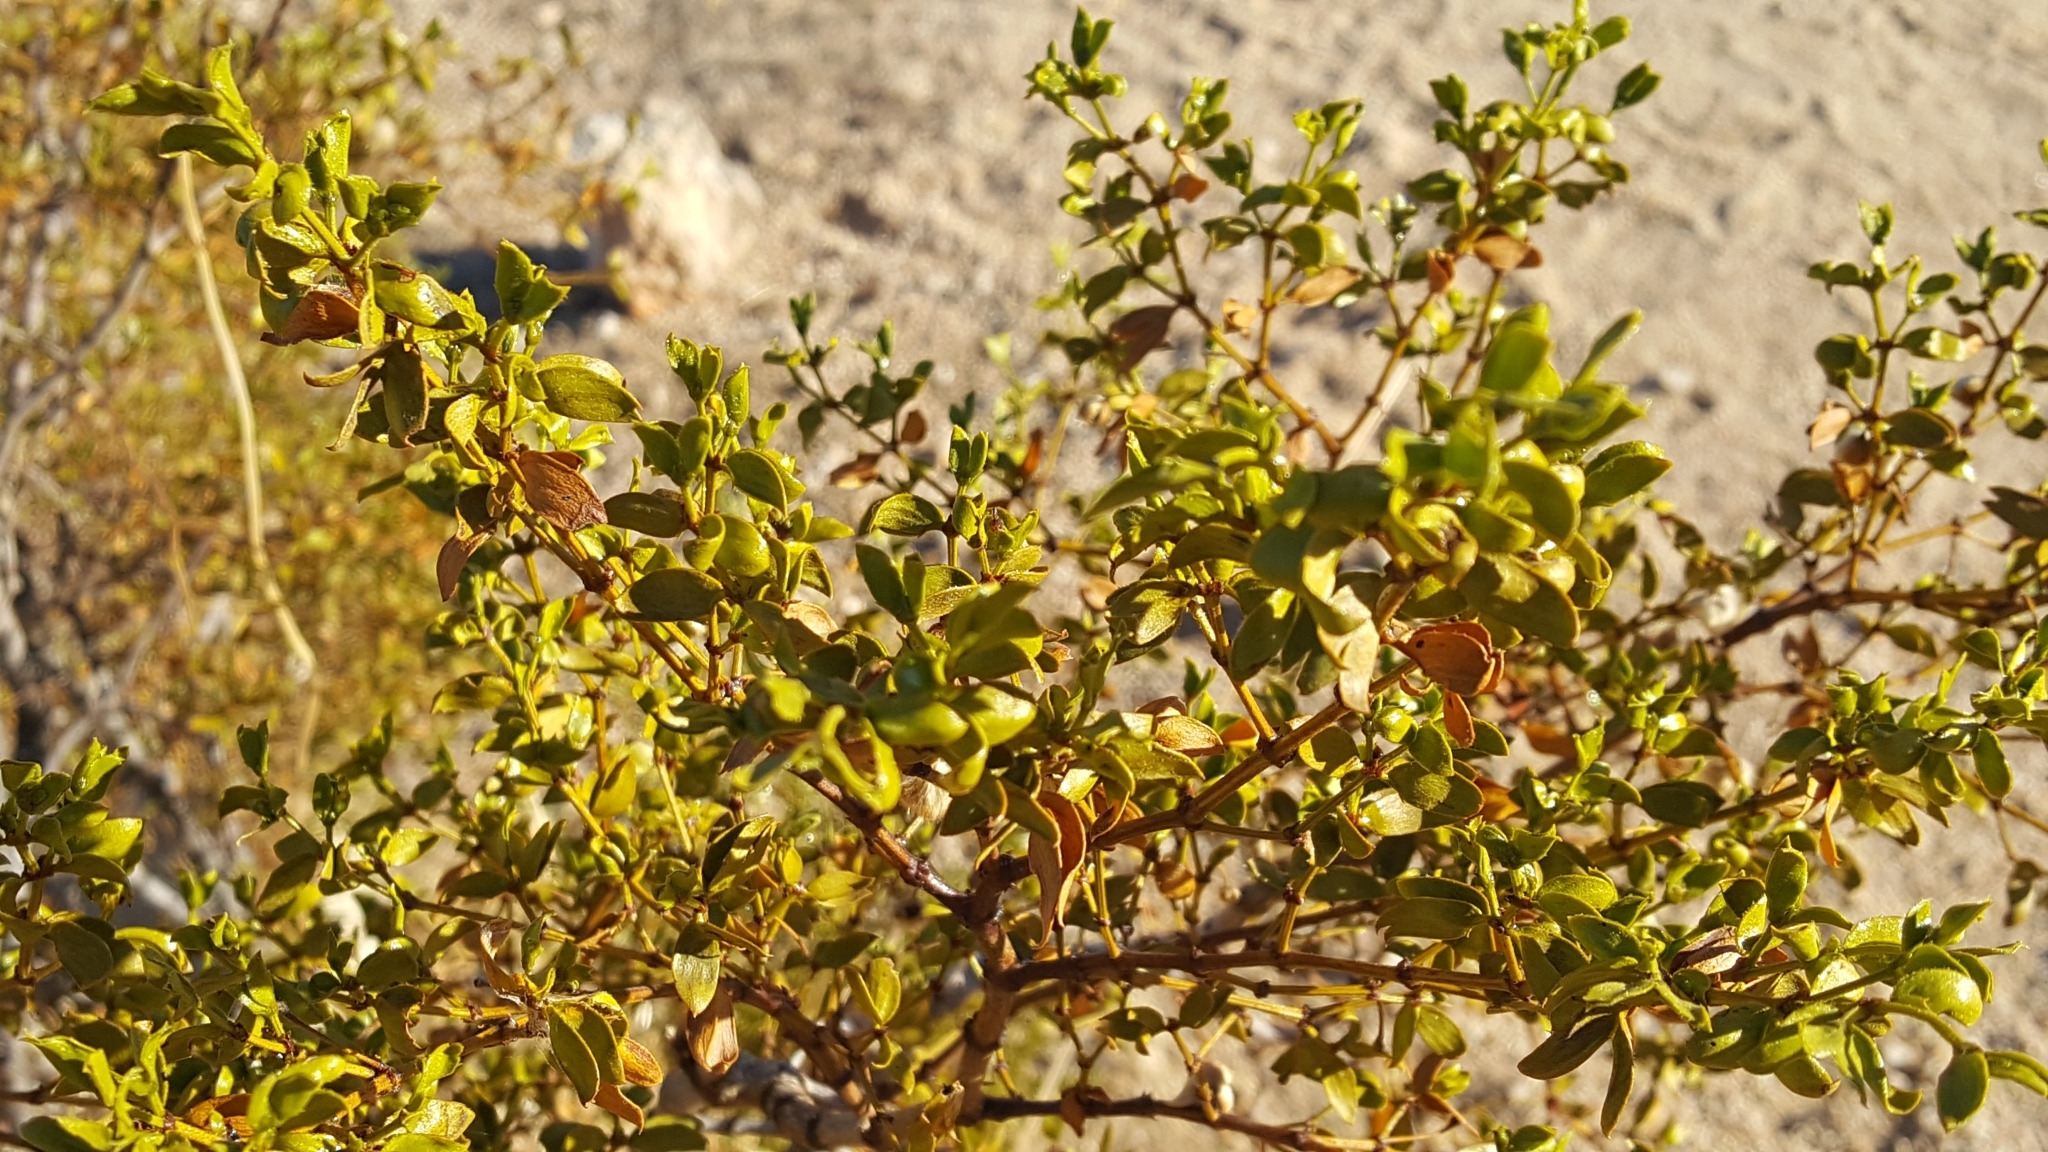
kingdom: Plantae
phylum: Tracheophyta
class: Magnoliopsida
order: Zygophyllales
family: Zygophyllaceae
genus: Larrea
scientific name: Larrea tridentata
